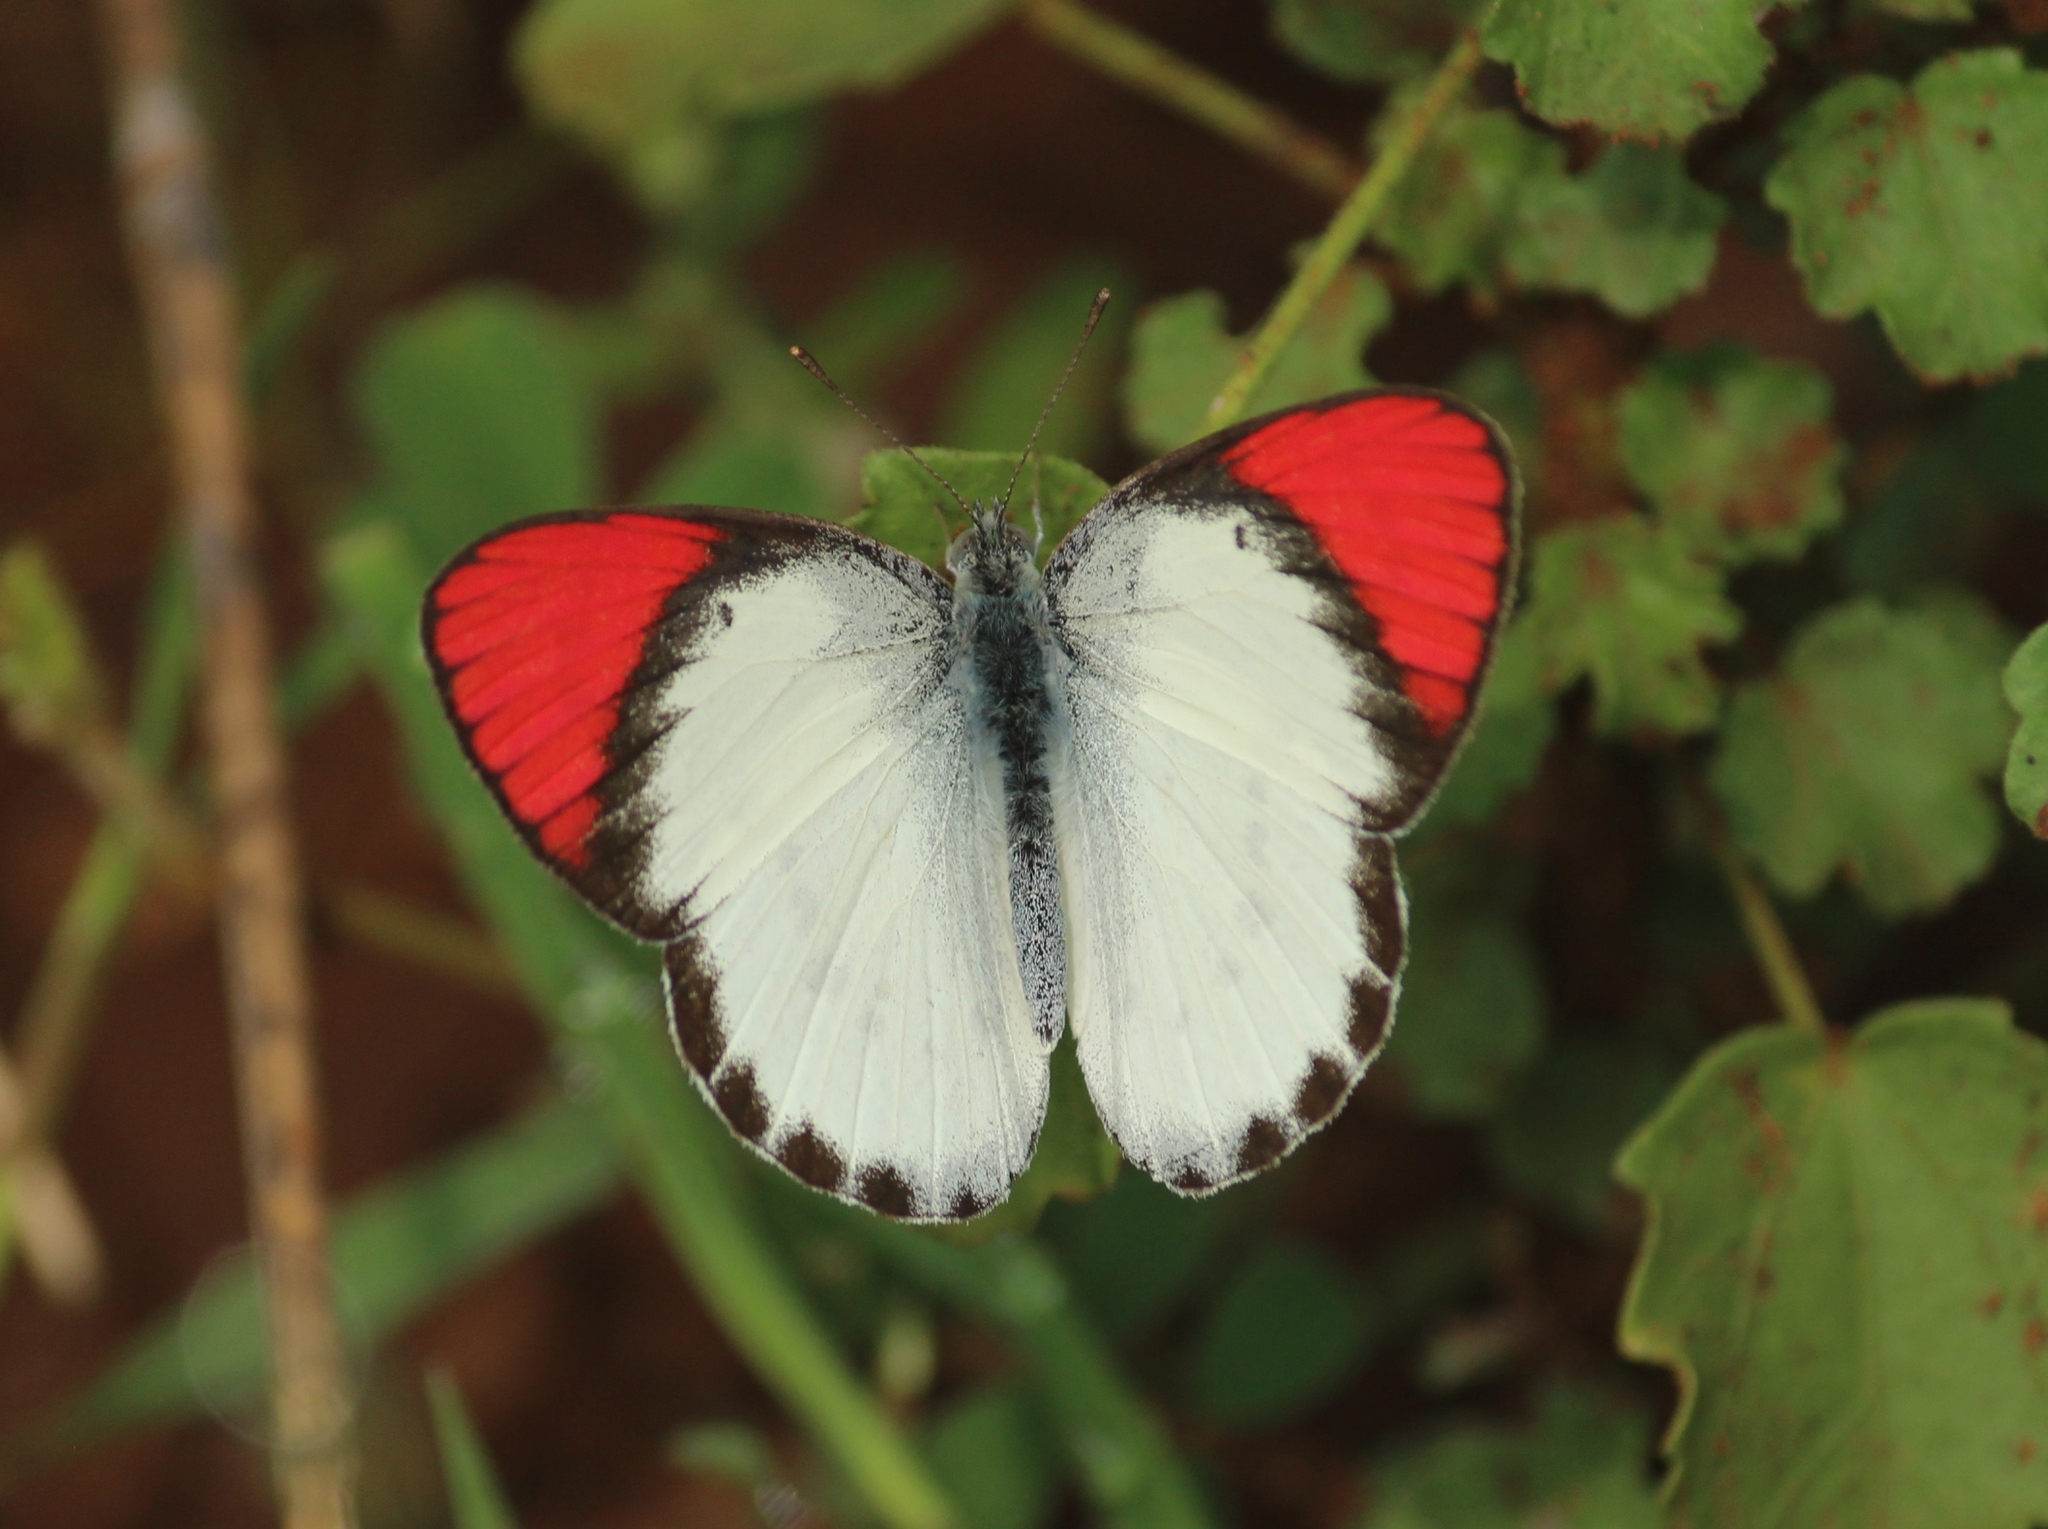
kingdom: Animalia
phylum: Arthropoda
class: Insecta
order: Lepidoptera
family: Pieridae
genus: Colotis
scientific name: Colotis danae
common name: Crimson tip
